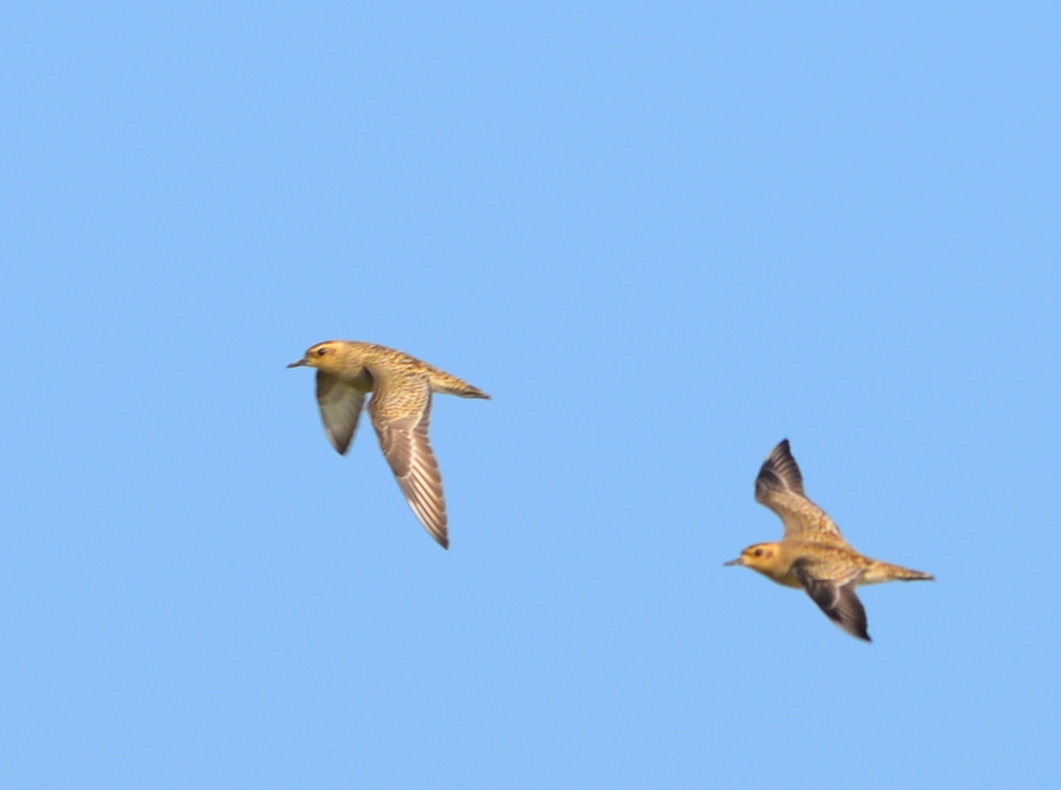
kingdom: Animalia
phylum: Chordata
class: Aves
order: Charadriiformes
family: Charadriidae
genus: Pluvialis
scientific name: Pluvialis fulva
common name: Pacific golden plover
